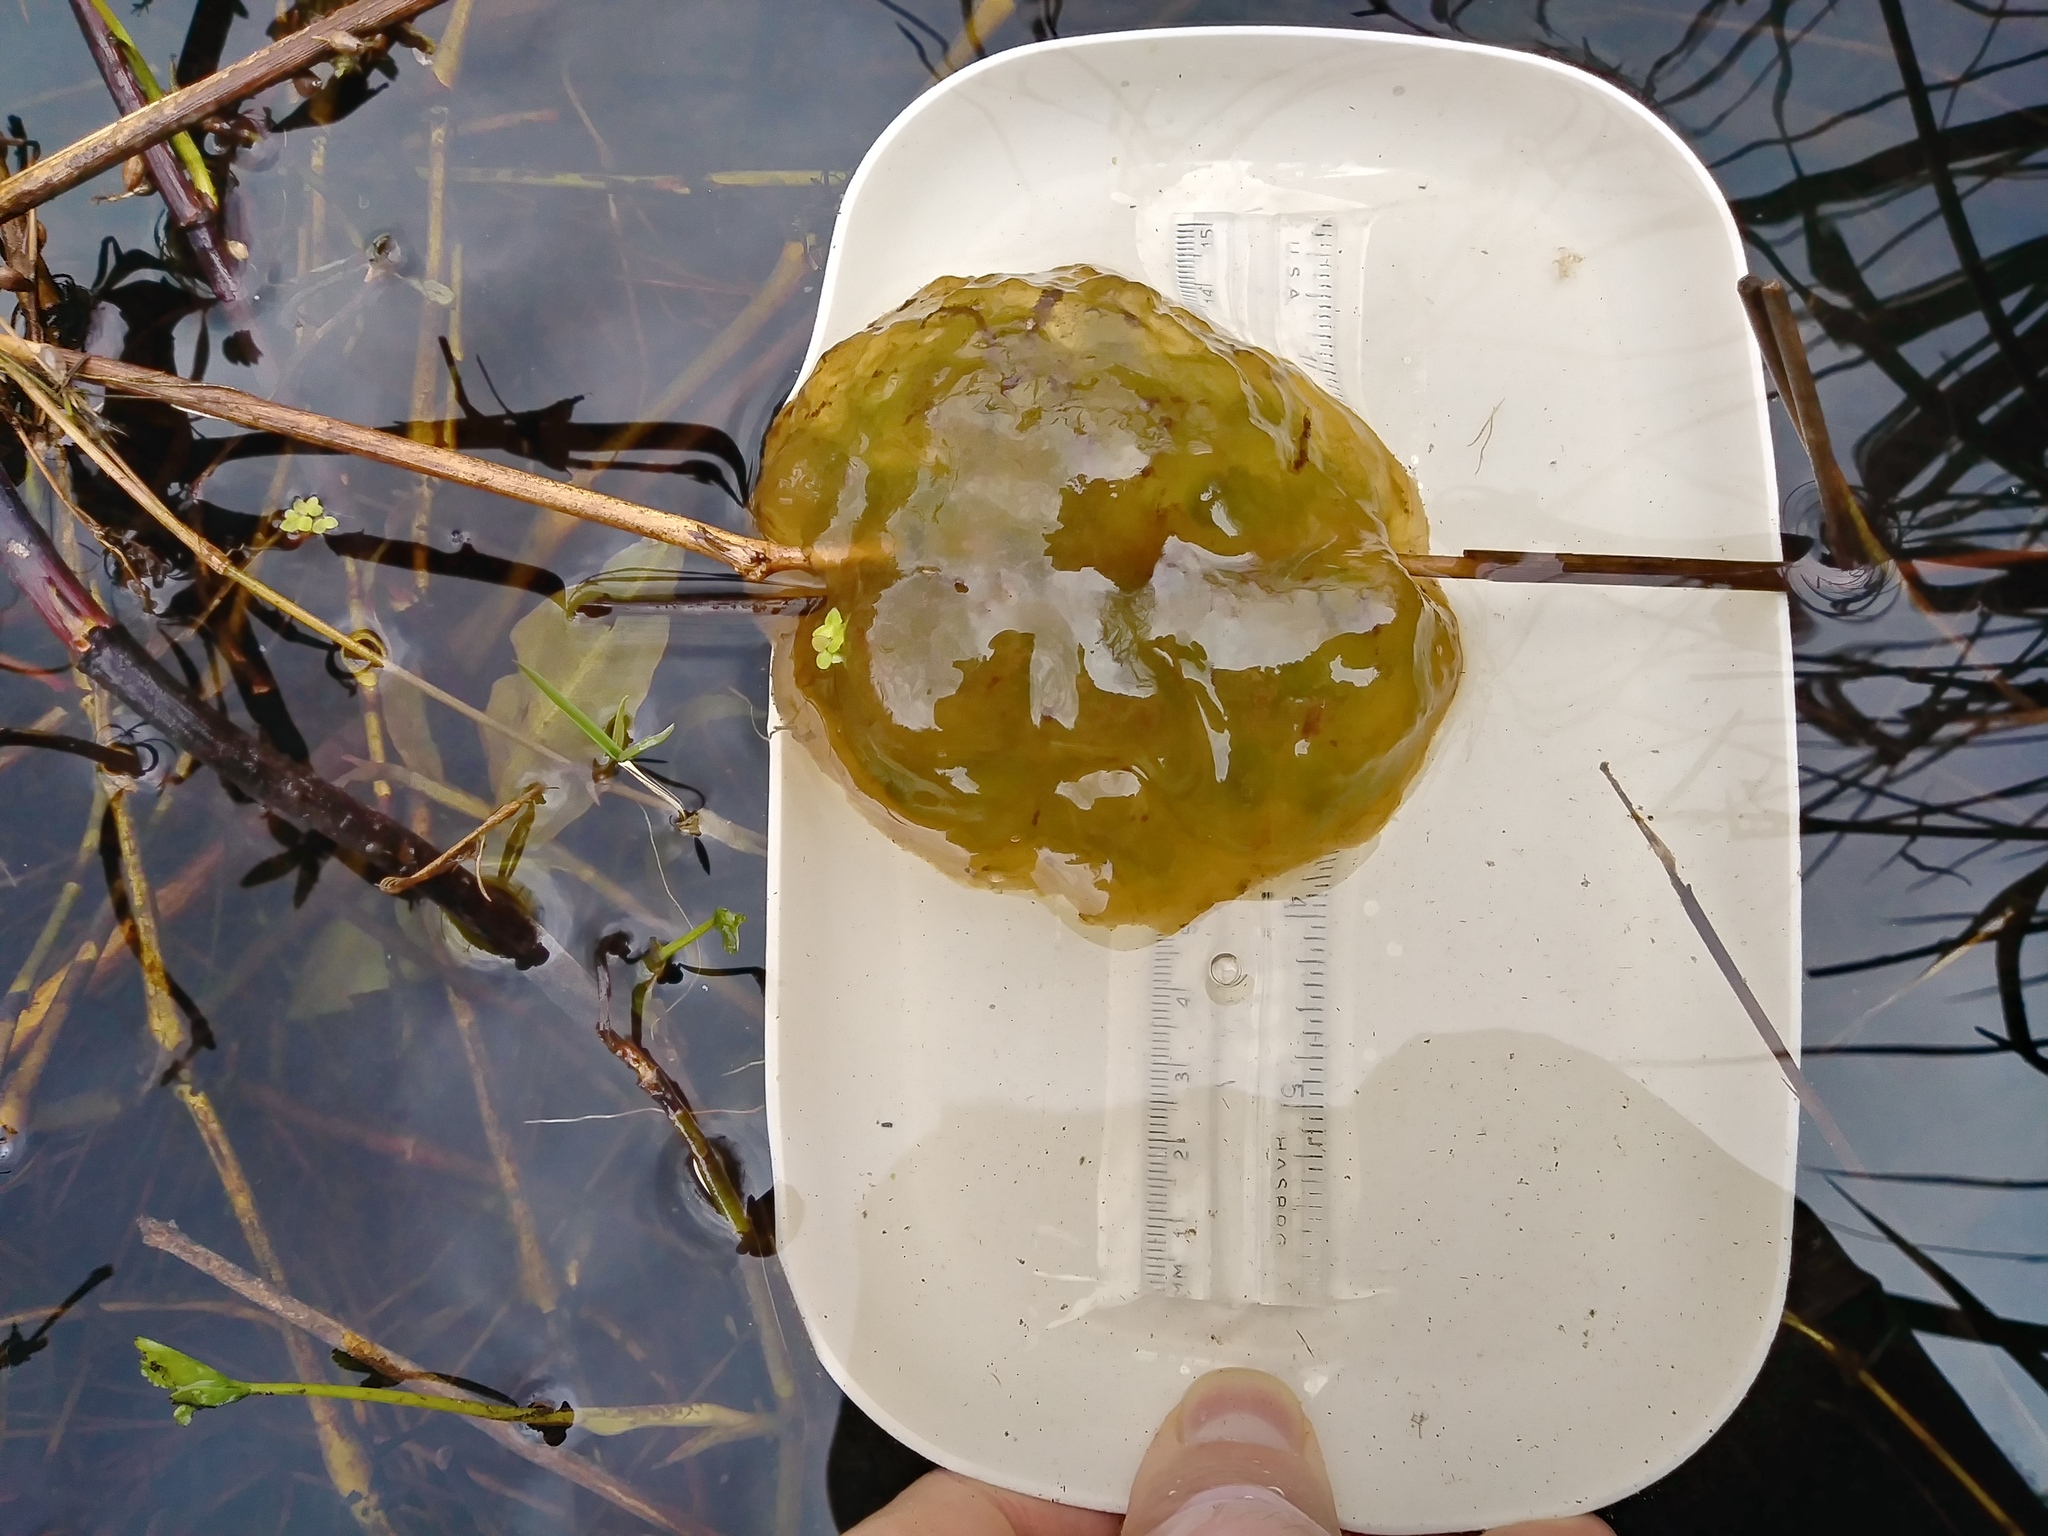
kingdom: Animalia
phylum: Chordata
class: Amphibia
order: Caudata
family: Ambystomatidae
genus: Ambystoma
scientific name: Ambystoma gracile
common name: Northwestern salamander
